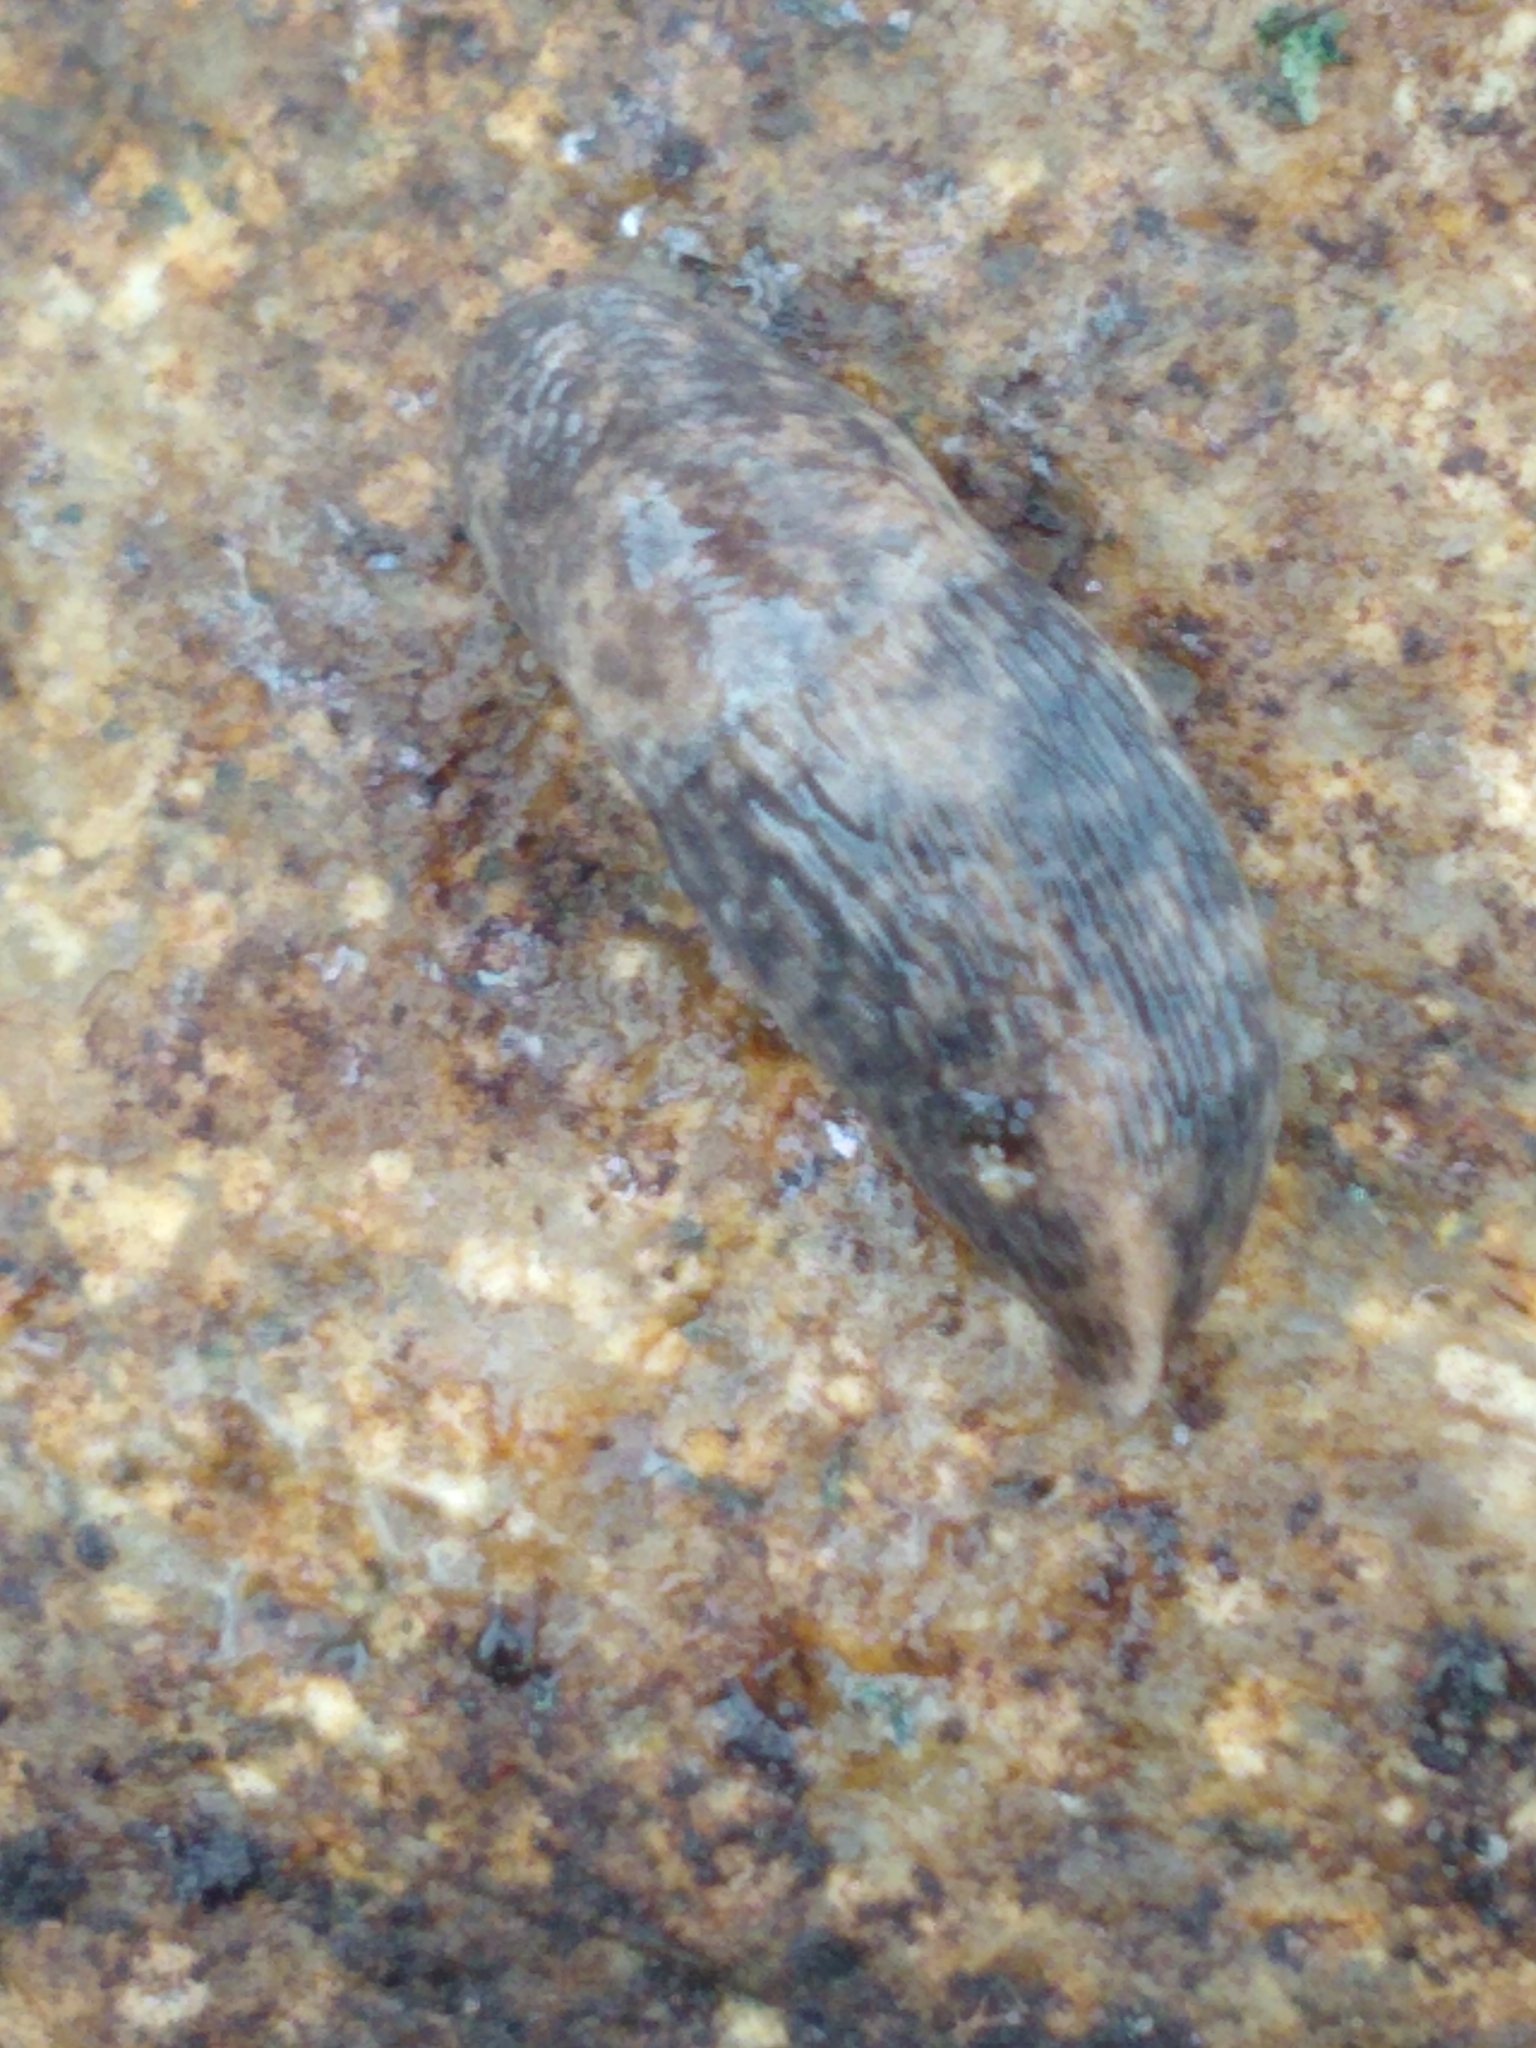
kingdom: Animalia
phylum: Mollusca
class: Gastropoda
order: Stylommatophora
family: Agriolimacidae
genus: Deroceras
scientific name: Deroceras reticulatum
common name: Gray field slug
